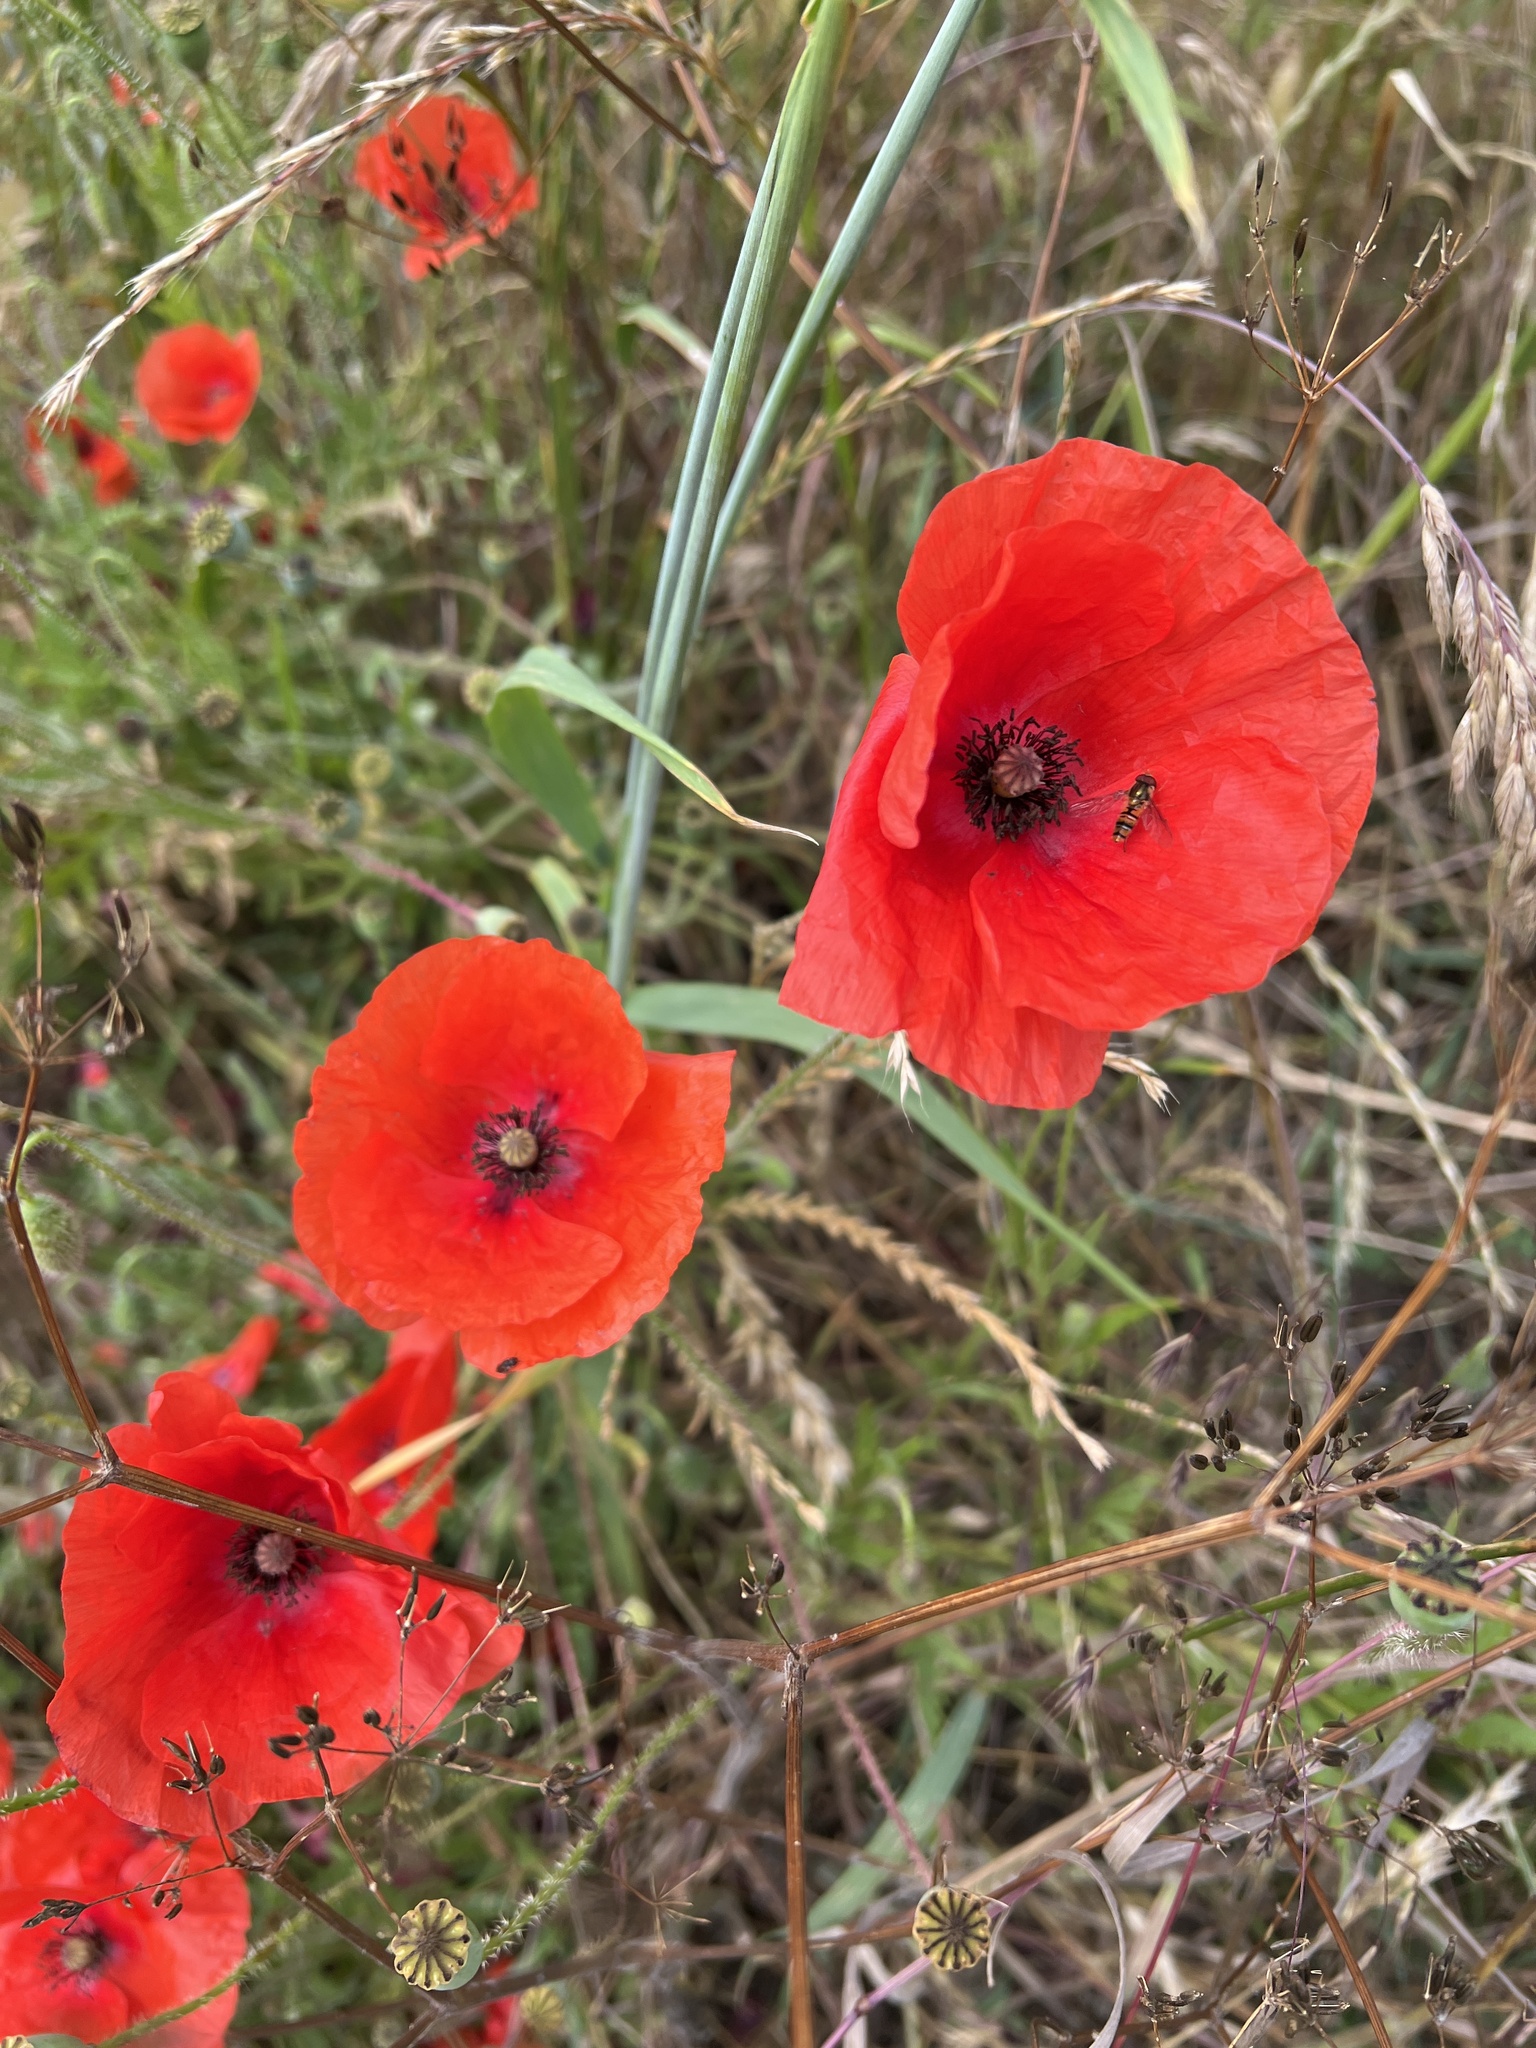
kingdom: Plantae
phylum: Tracheophyta
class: Magnoliopsida
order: Ranunculales
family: Papaveraceae
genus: Papaver
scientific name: Papaver rhoeas
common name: Corn poppy
